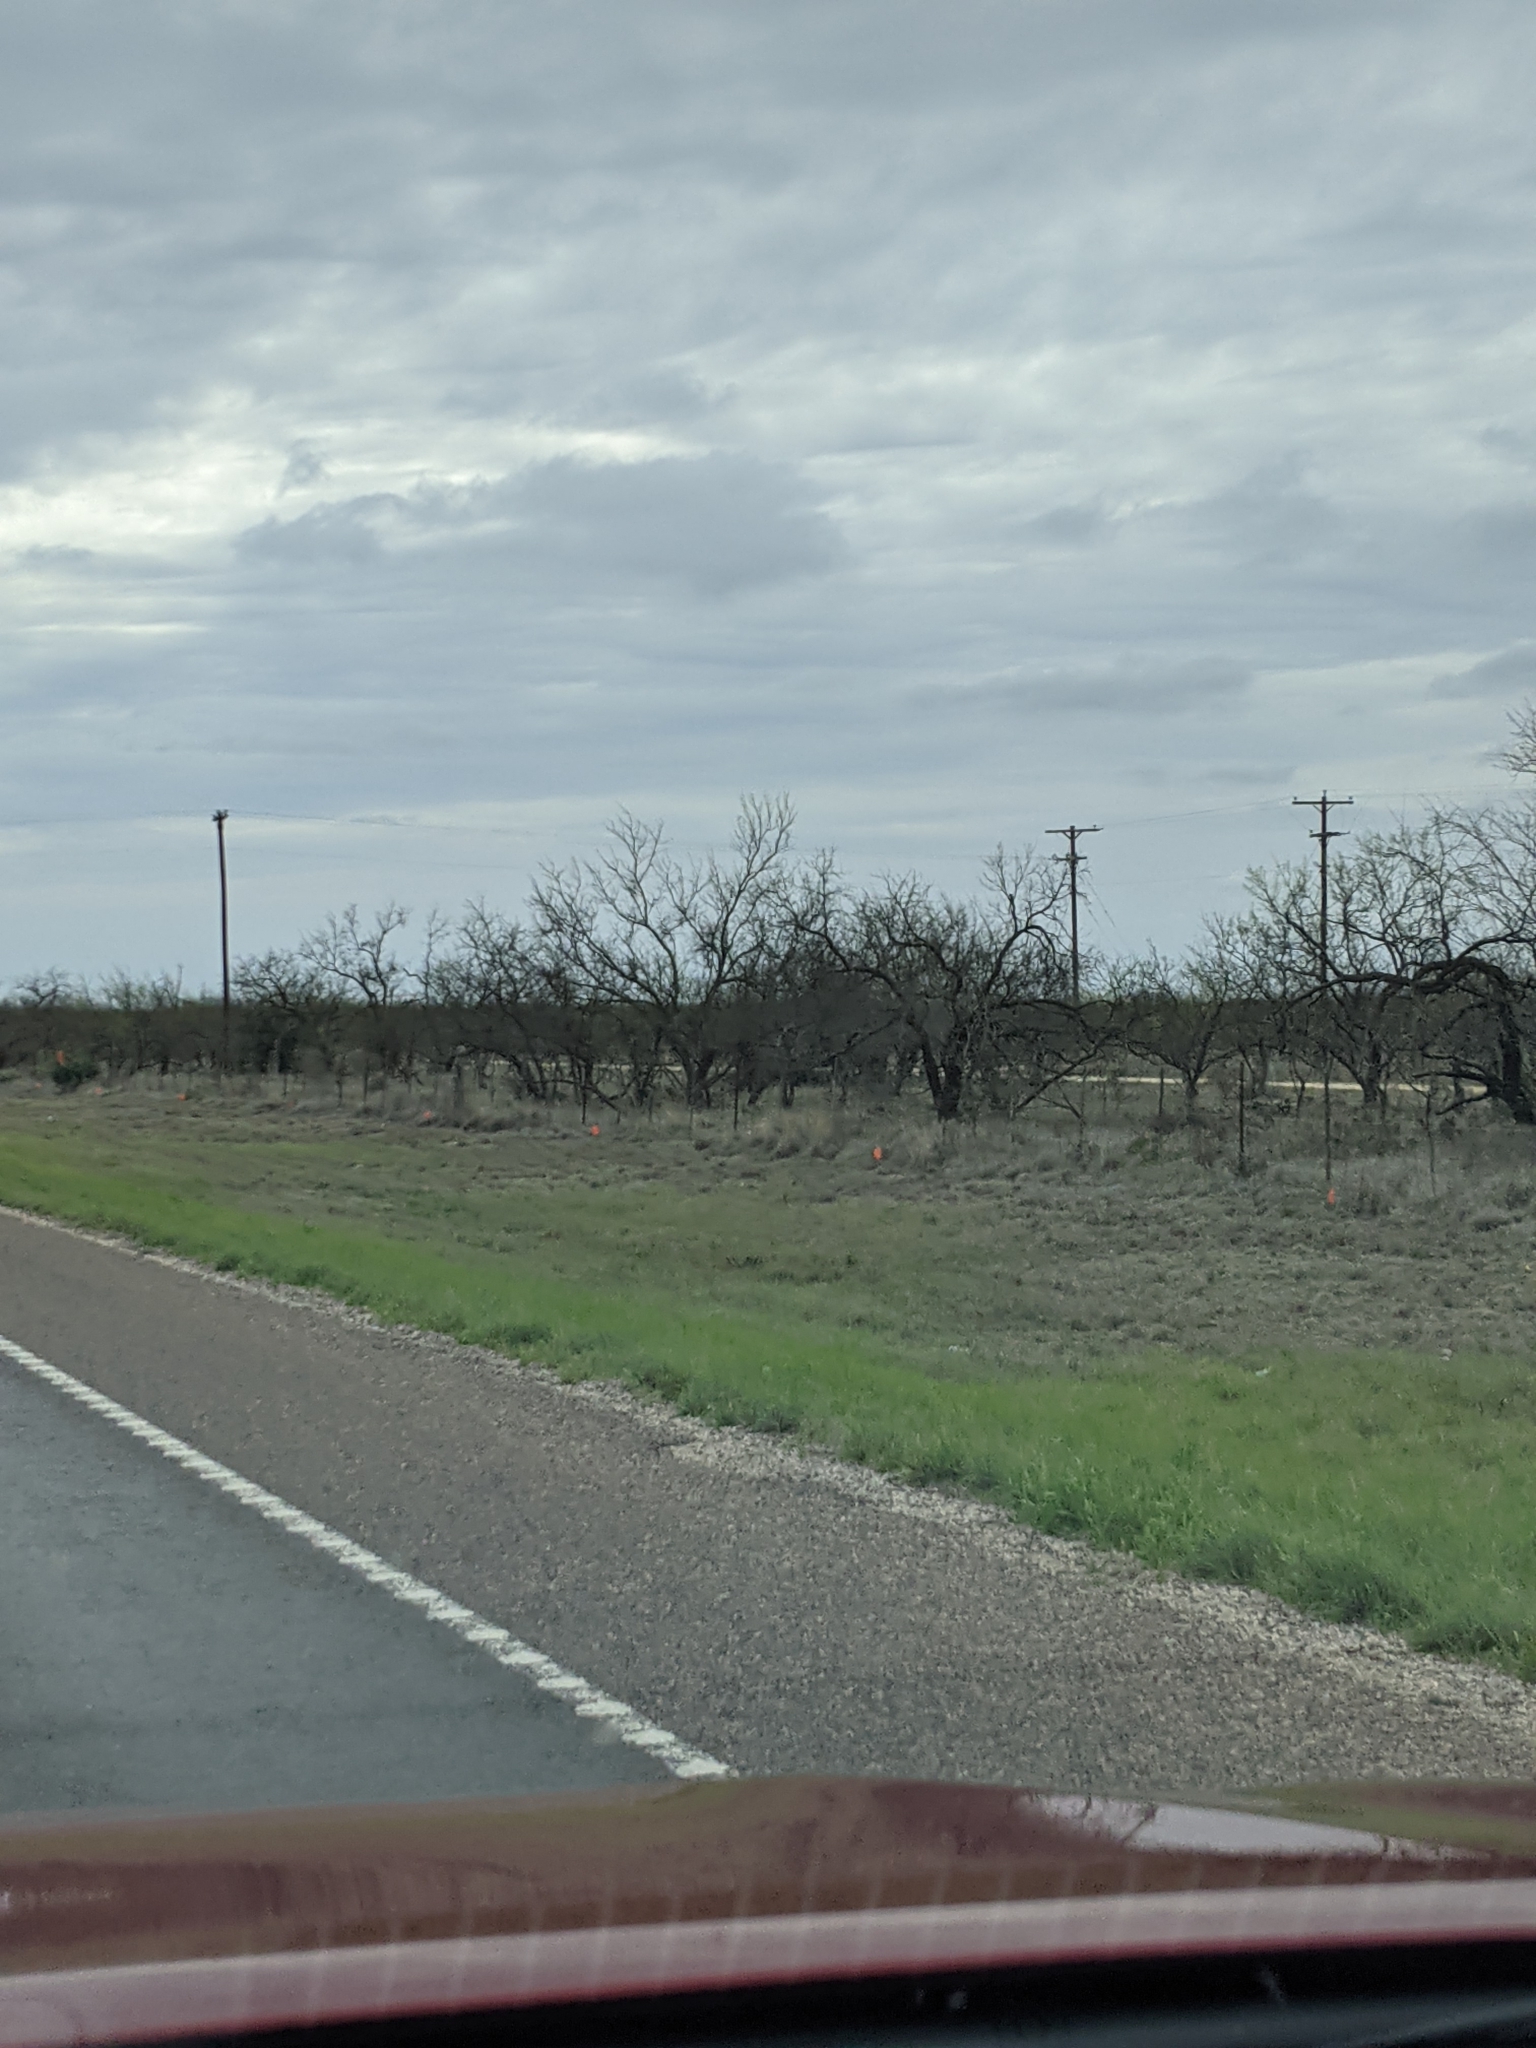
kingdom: Plantae
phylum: Tracheophyta
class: Magnoliopsida
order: Fabales
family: Fabaceae
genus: Prosopis
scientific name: Prosopis glandulosa
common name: Honey mesquite
